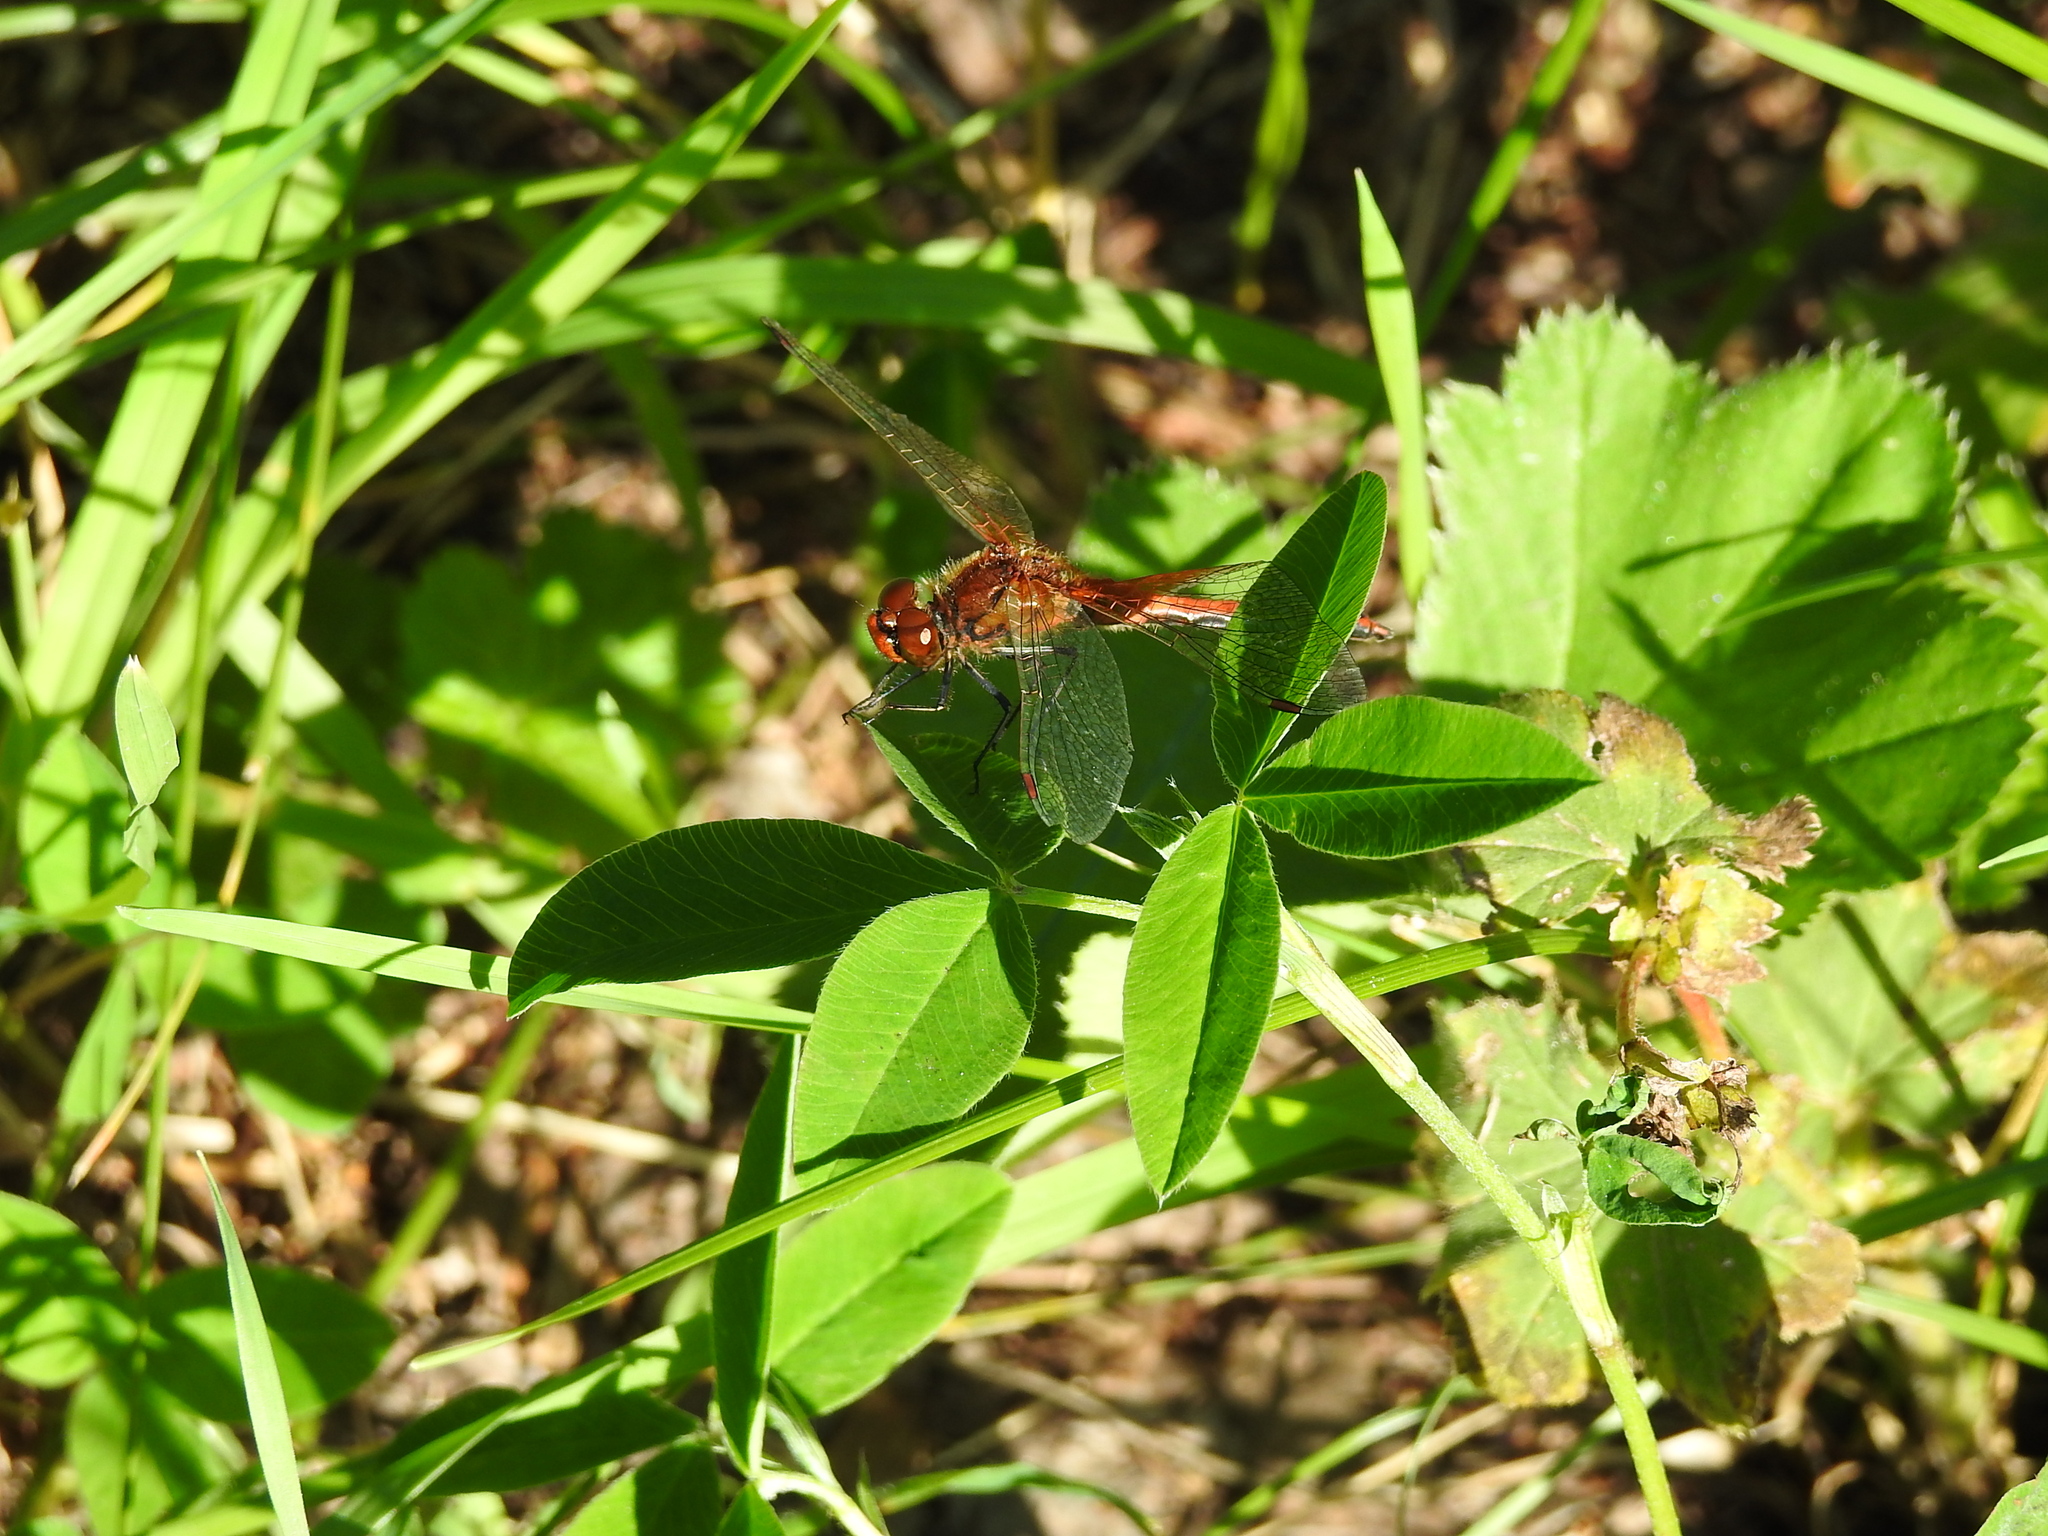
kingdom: Animalia
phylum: Arthropoda
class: Insecta
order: Odonata
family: Libellulidae
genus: Sympetrum
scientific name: Sympetrum flaveolum
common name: Yellow-winged darter
